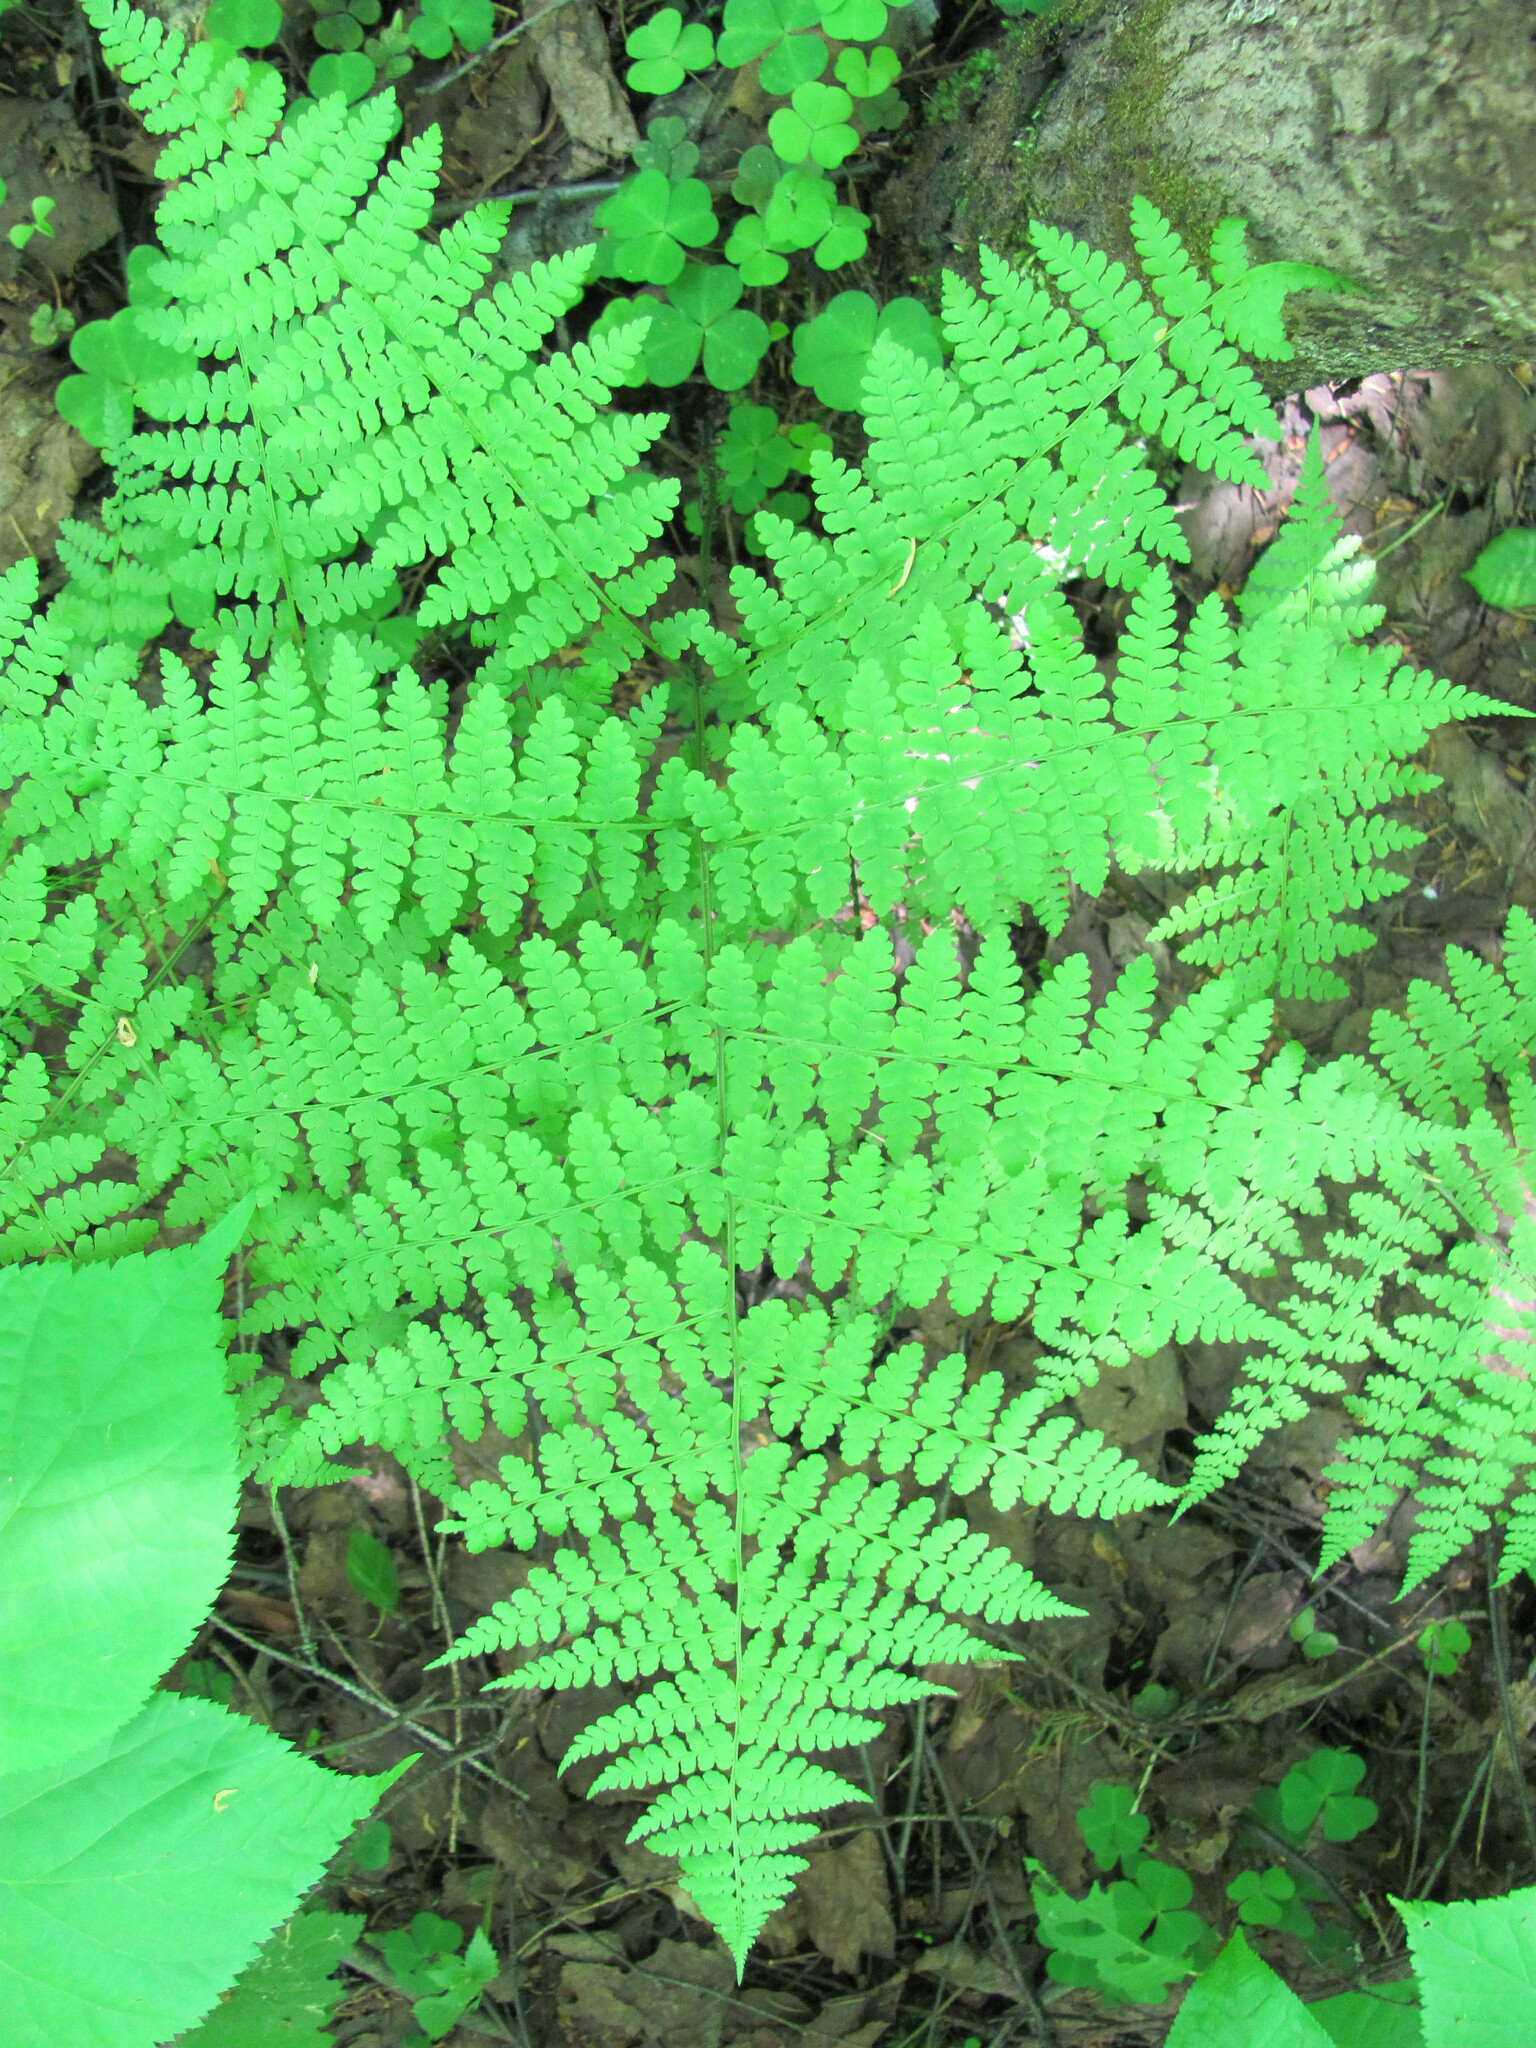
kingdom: Plantae
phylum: Tracheophyta
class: Polypodiopsida
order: Polypodiales
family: Athyriaceae
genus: Diplazium
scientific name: Diplazium sibiricum
